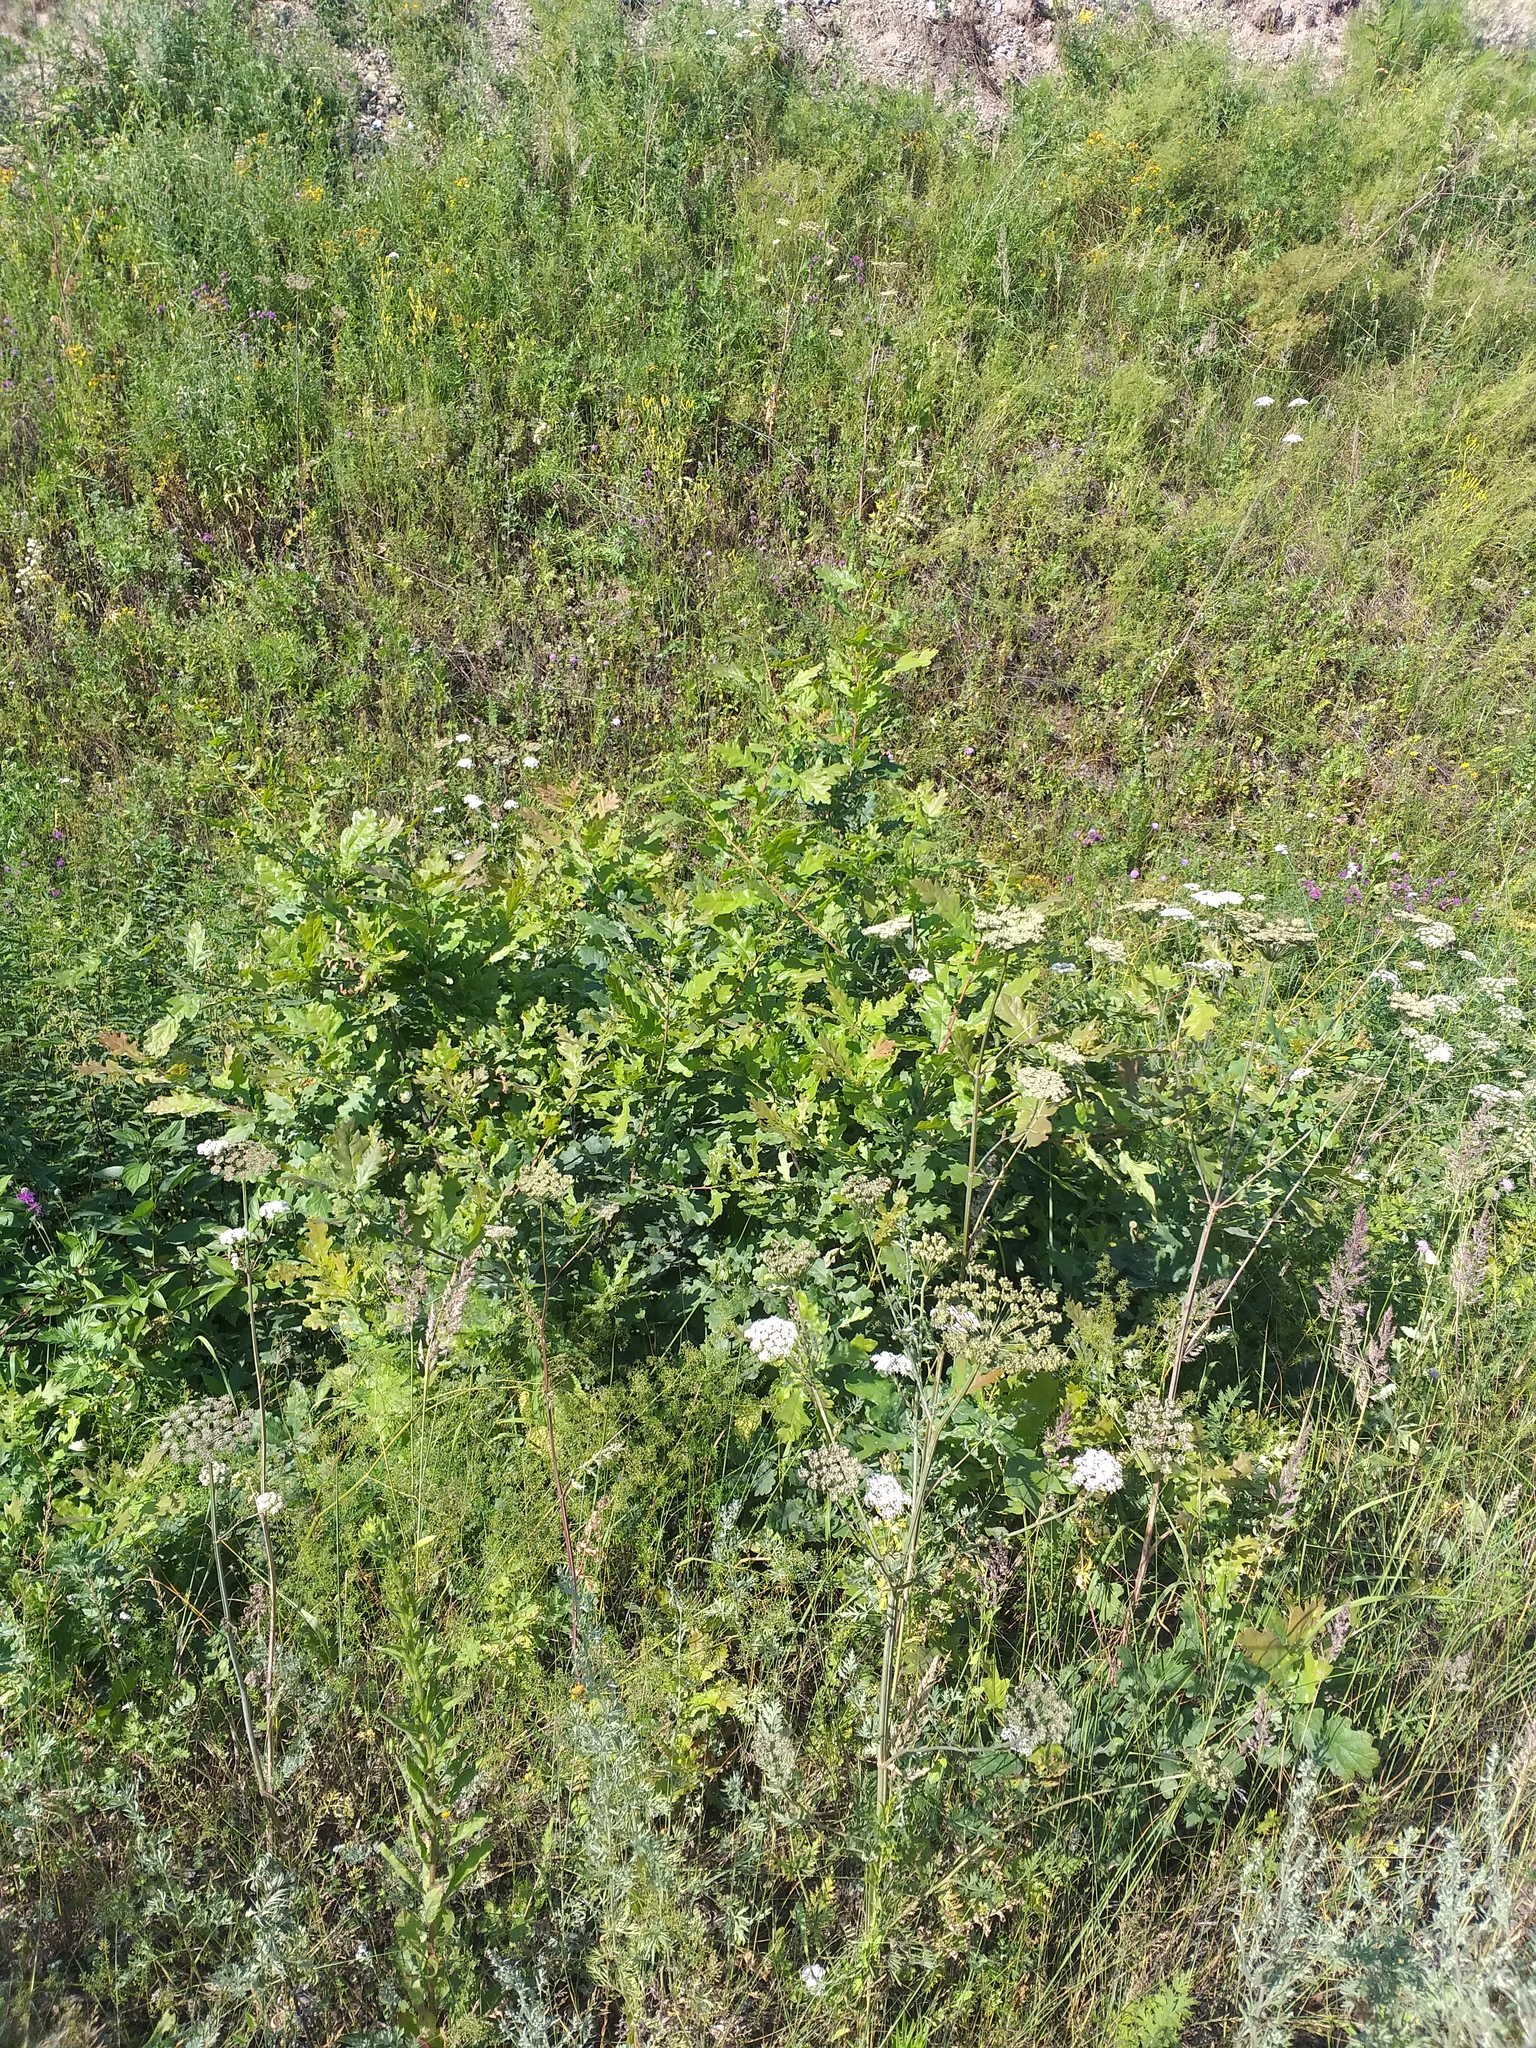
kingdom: Plantae
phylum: Tracheophyta
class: Magnoliopsida
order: Fagales
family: Fagaceae
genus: Quercus
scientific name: Quercus robur
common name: Pedunculate oak
